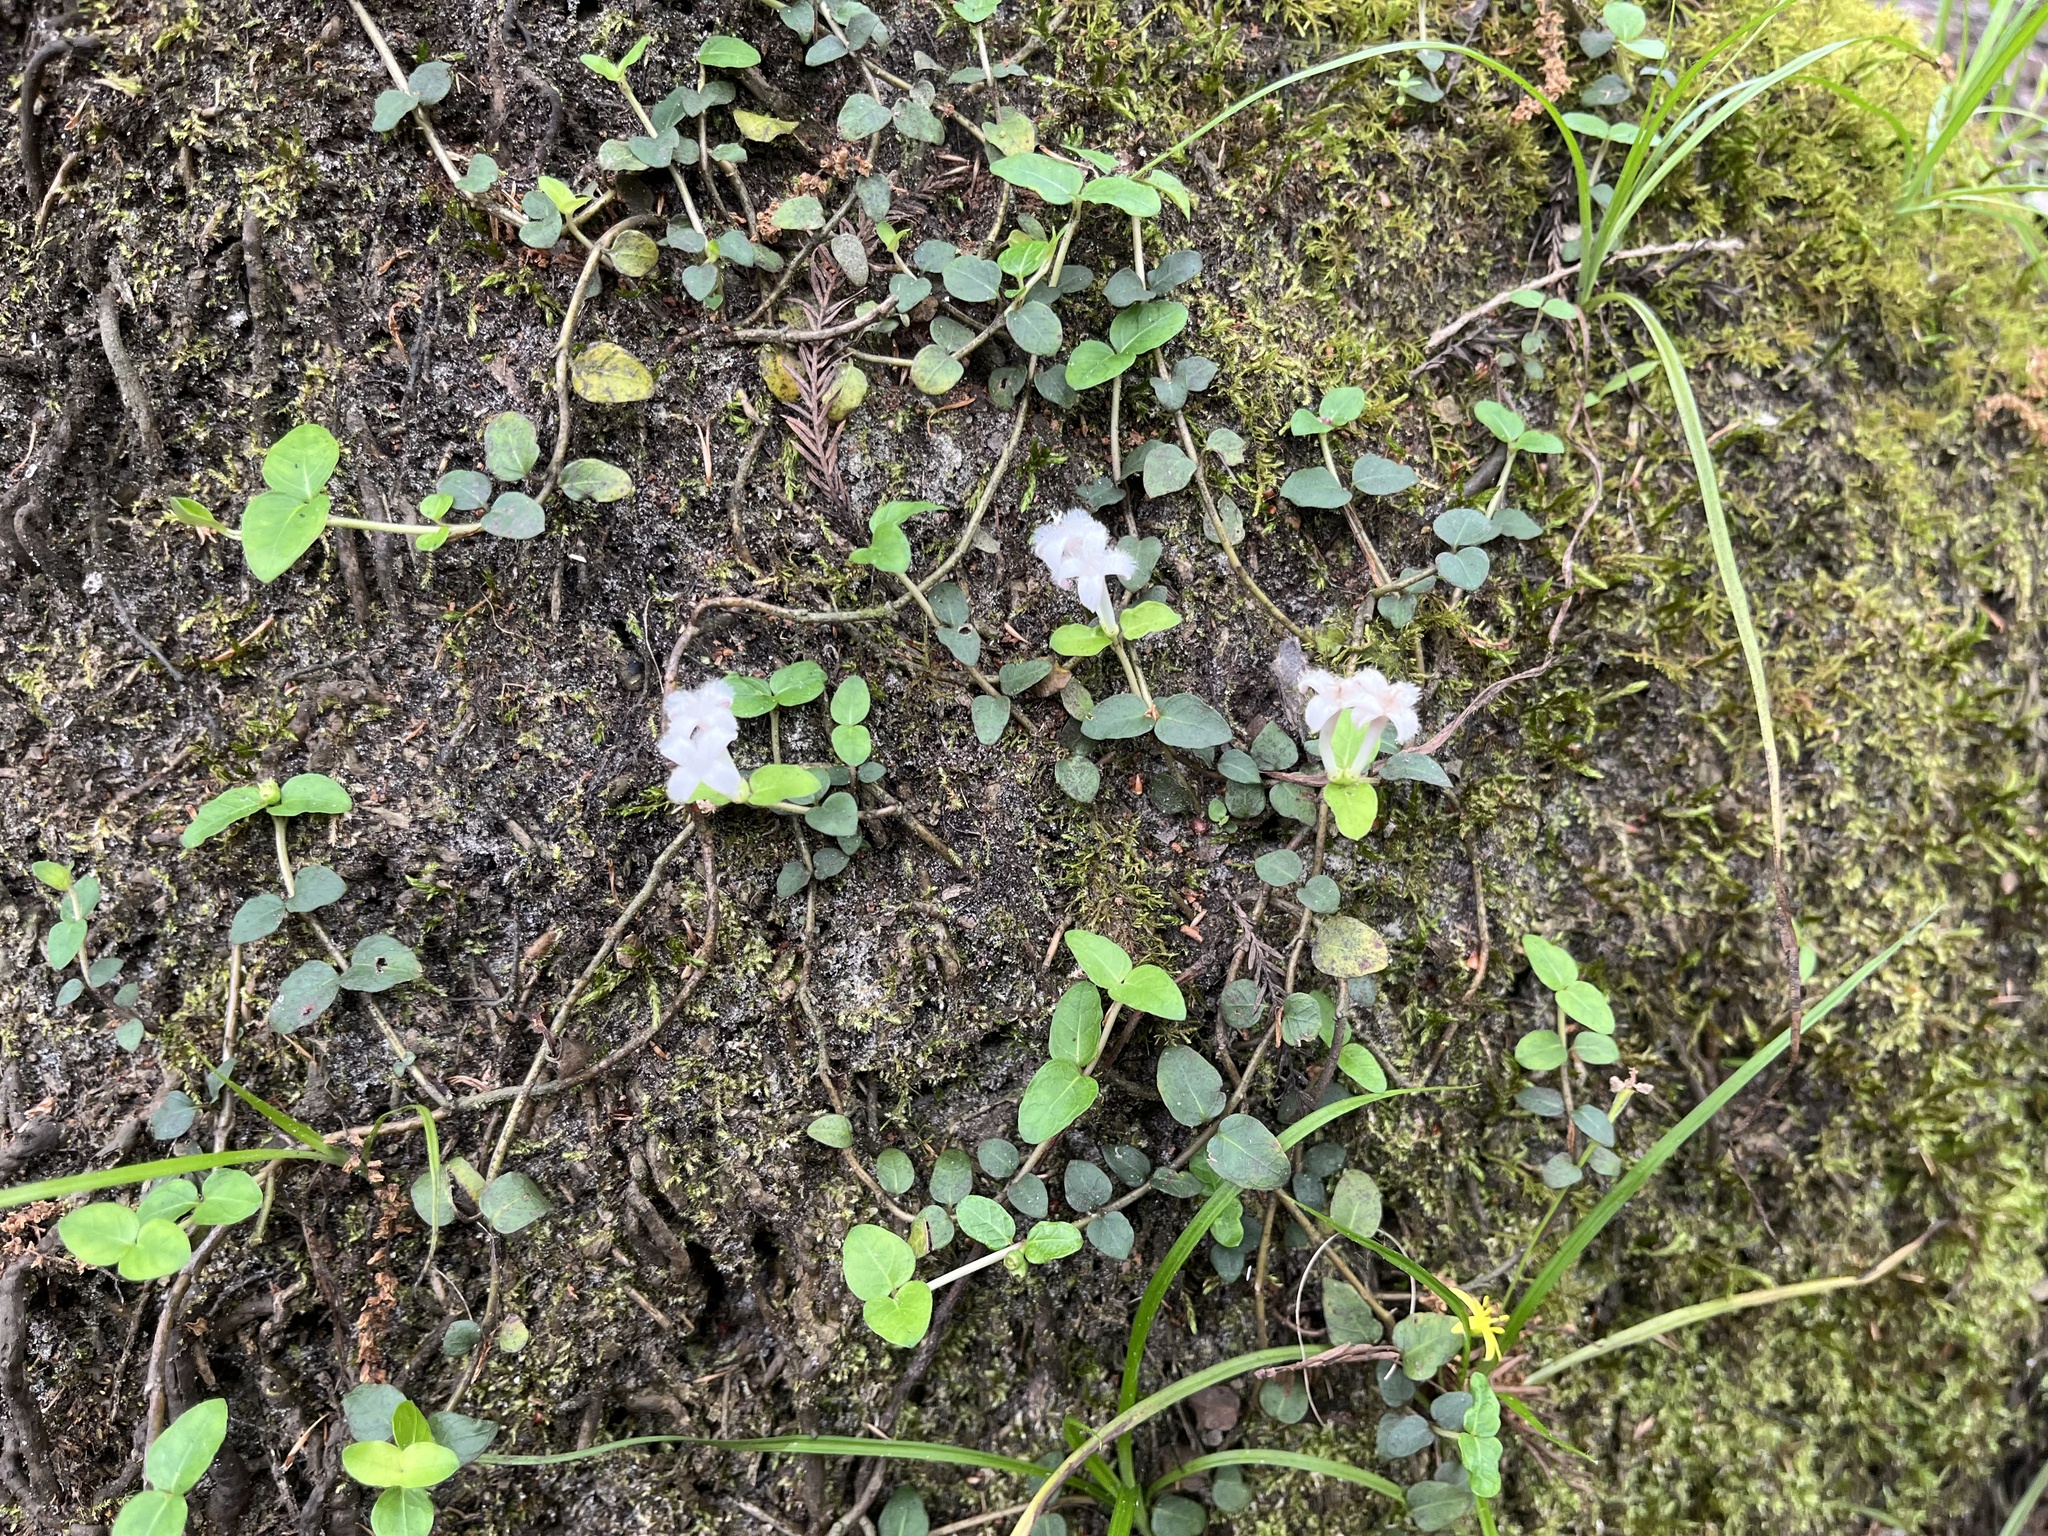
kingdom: Plantae
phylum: Tracheophyta
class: Magnoliopsida
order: Gentianales
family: Rubiaceae
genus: Mitchella
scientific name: Mitchella repens
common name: Partridge-berry
